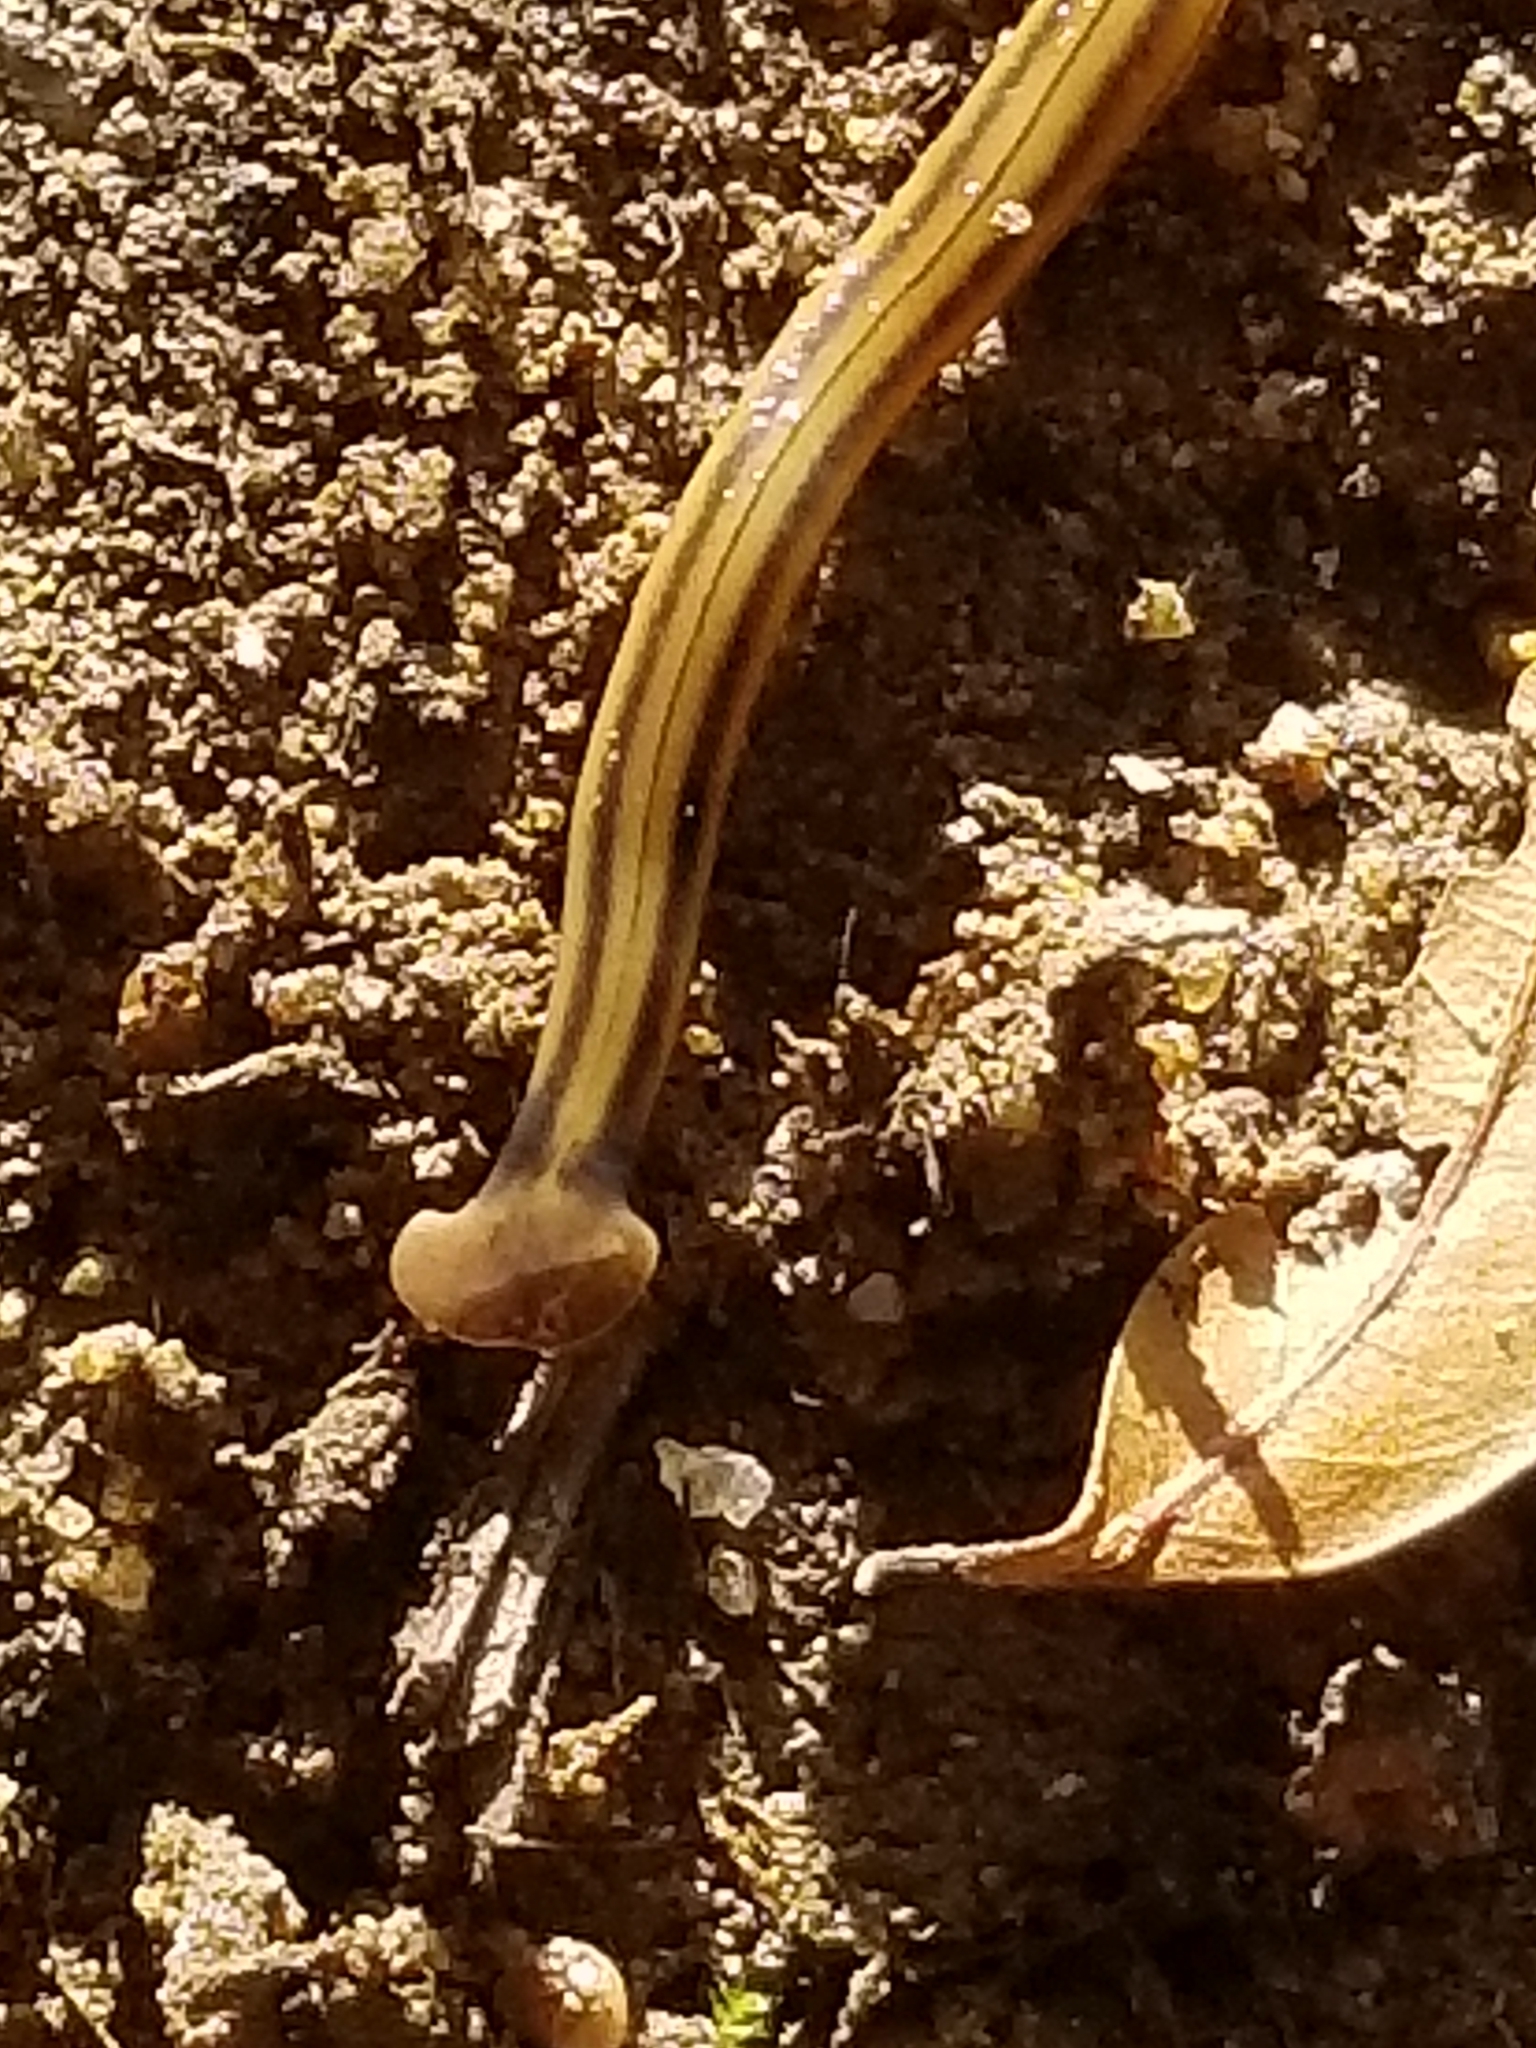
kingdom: Animalia
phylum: Platyhelminthes
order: Tricladida
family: Geoplanidae
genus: Bipalium
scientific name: Bipalium kewense
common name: Hammerhead flatworm
